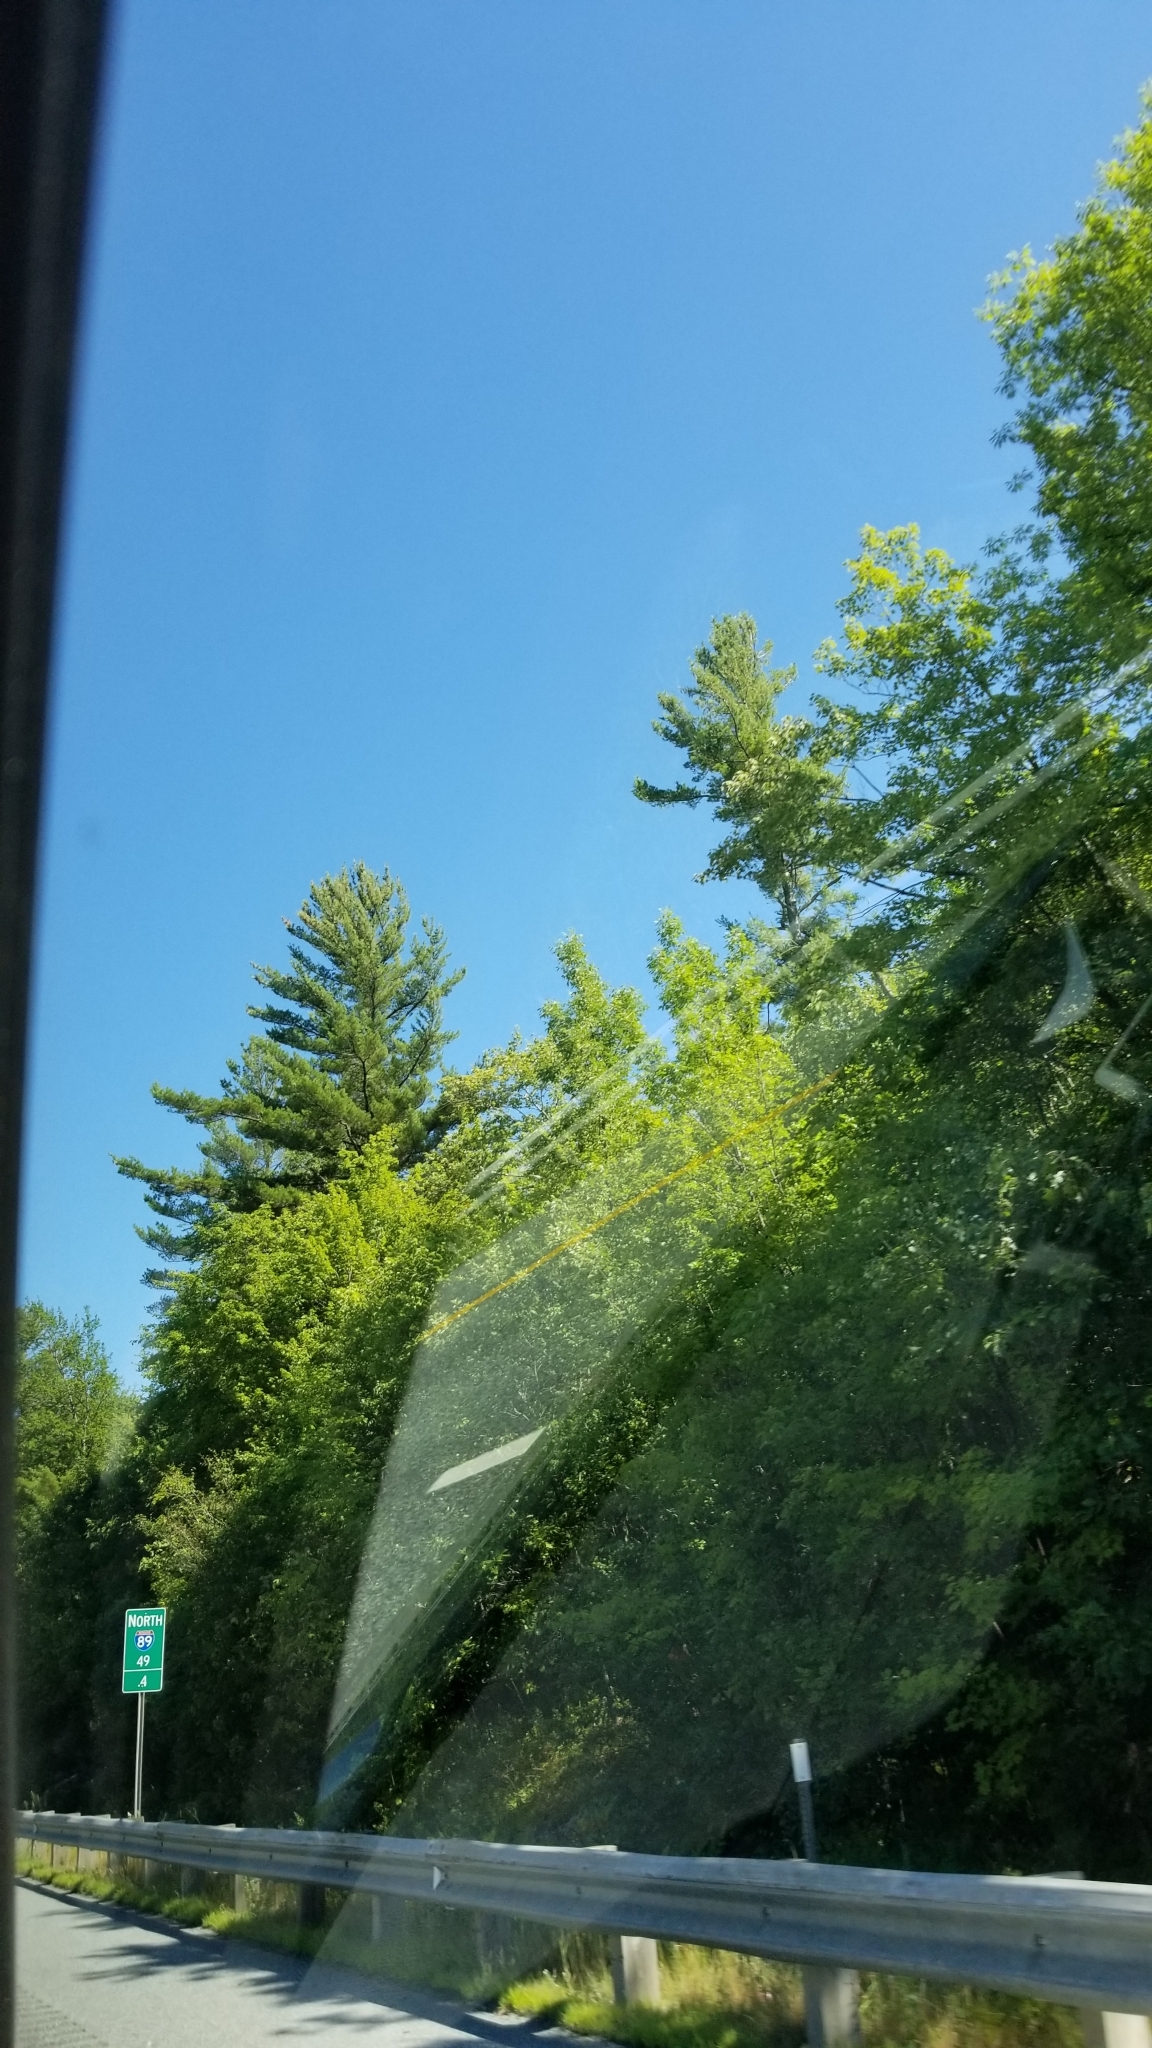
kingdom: Plantae
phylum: Tracheophyta
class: Pinopsida
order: Pinales
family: Pinaceae
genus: Pinus
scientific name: Pinus strobus
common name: Weymouth pine
